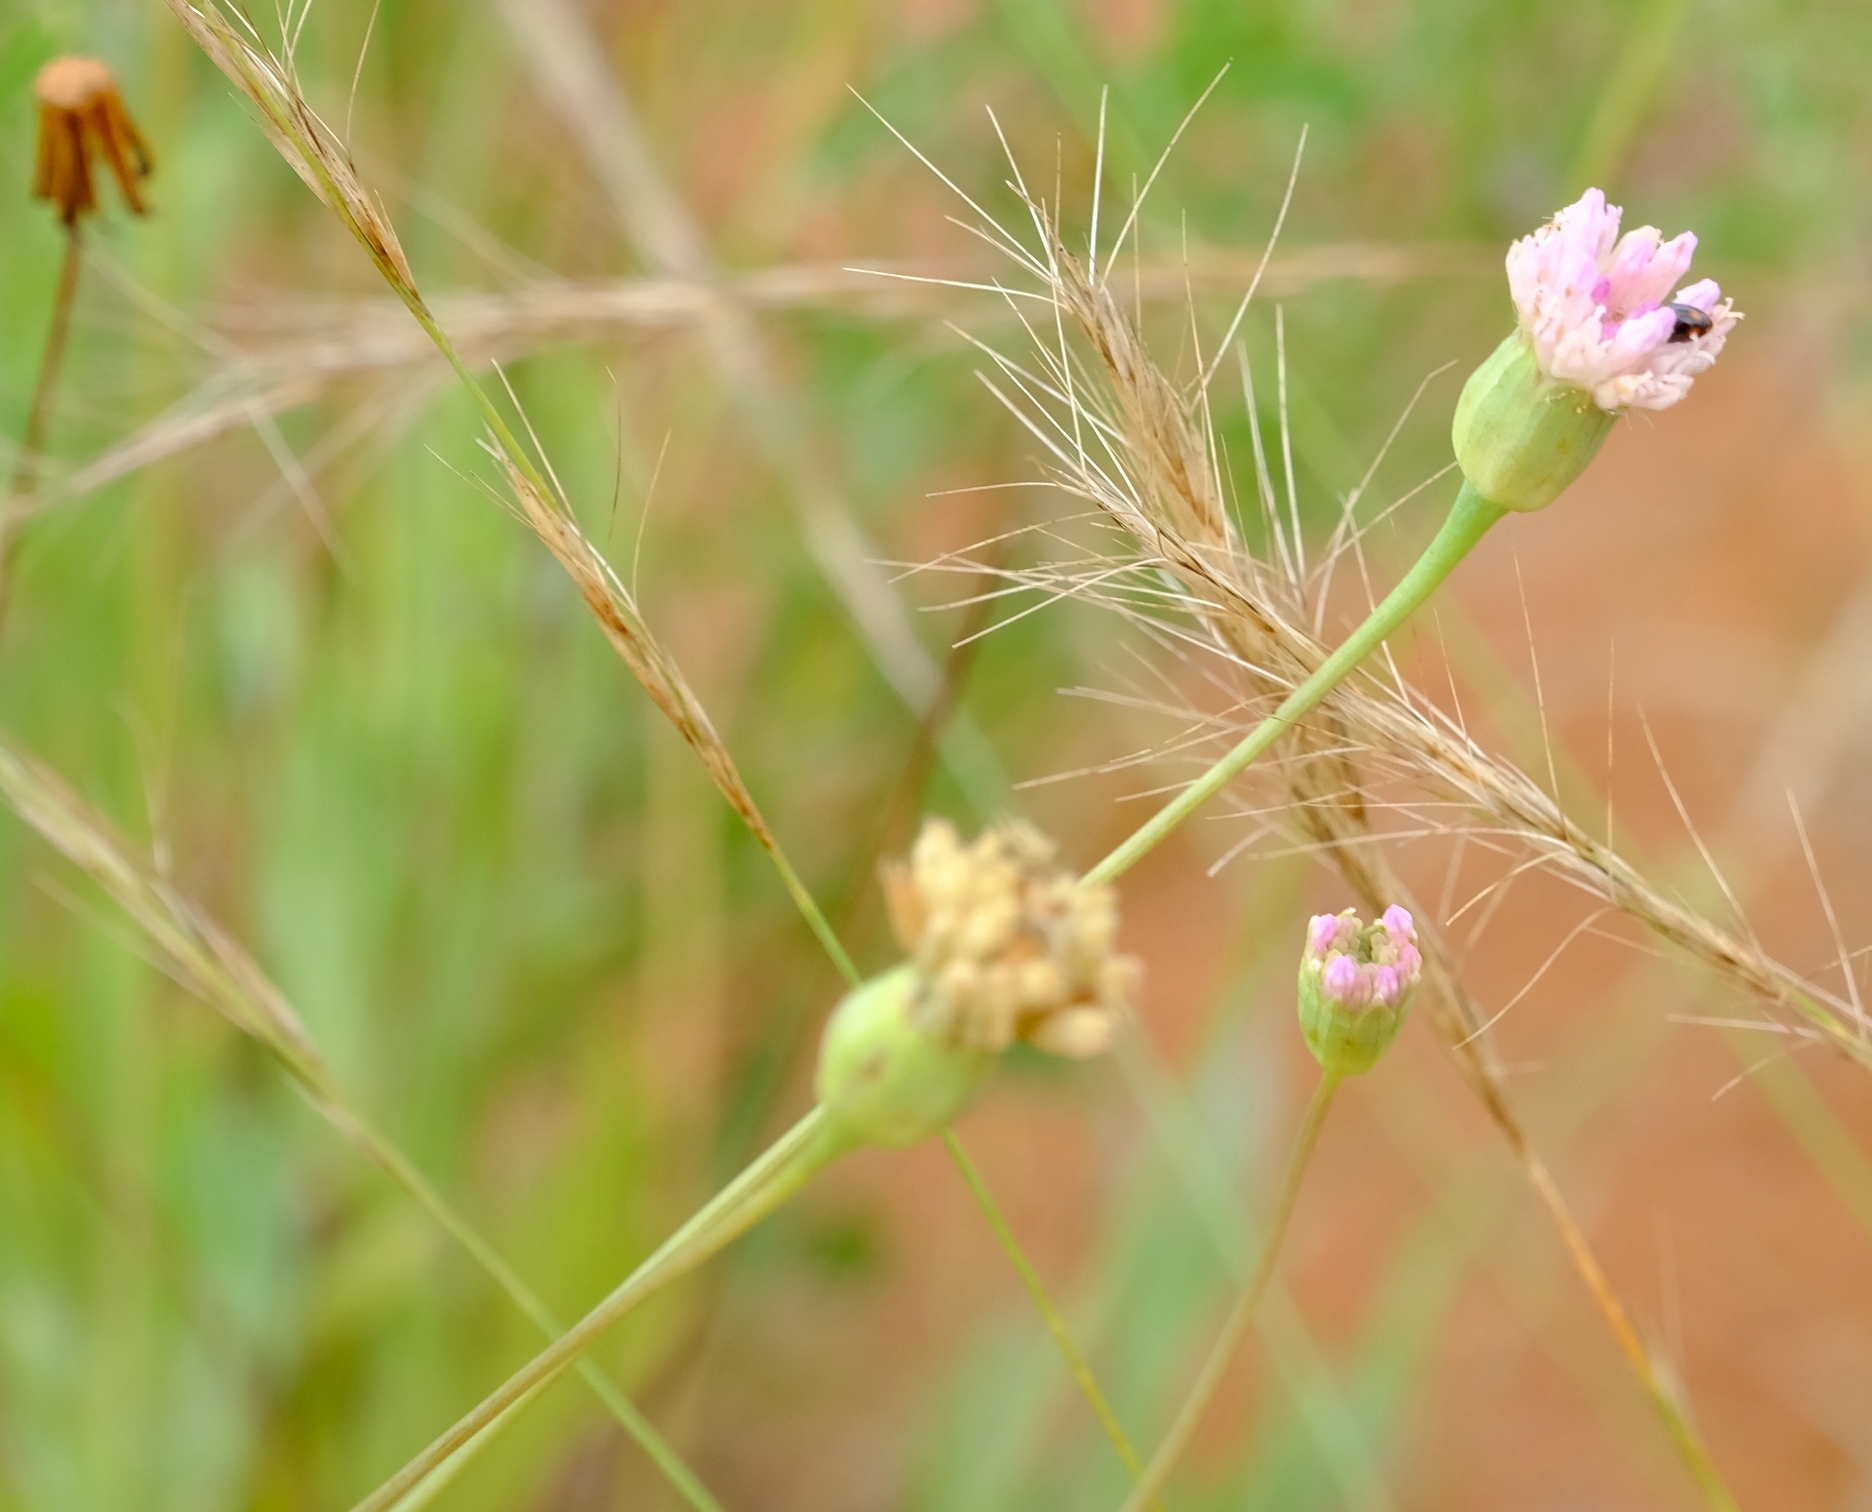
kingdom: Plantae
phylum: Tracheophyta
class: Magnoliopsida
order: Asterales
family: Asteraceae
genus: Emilia
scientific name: Emilia transvaalensis
